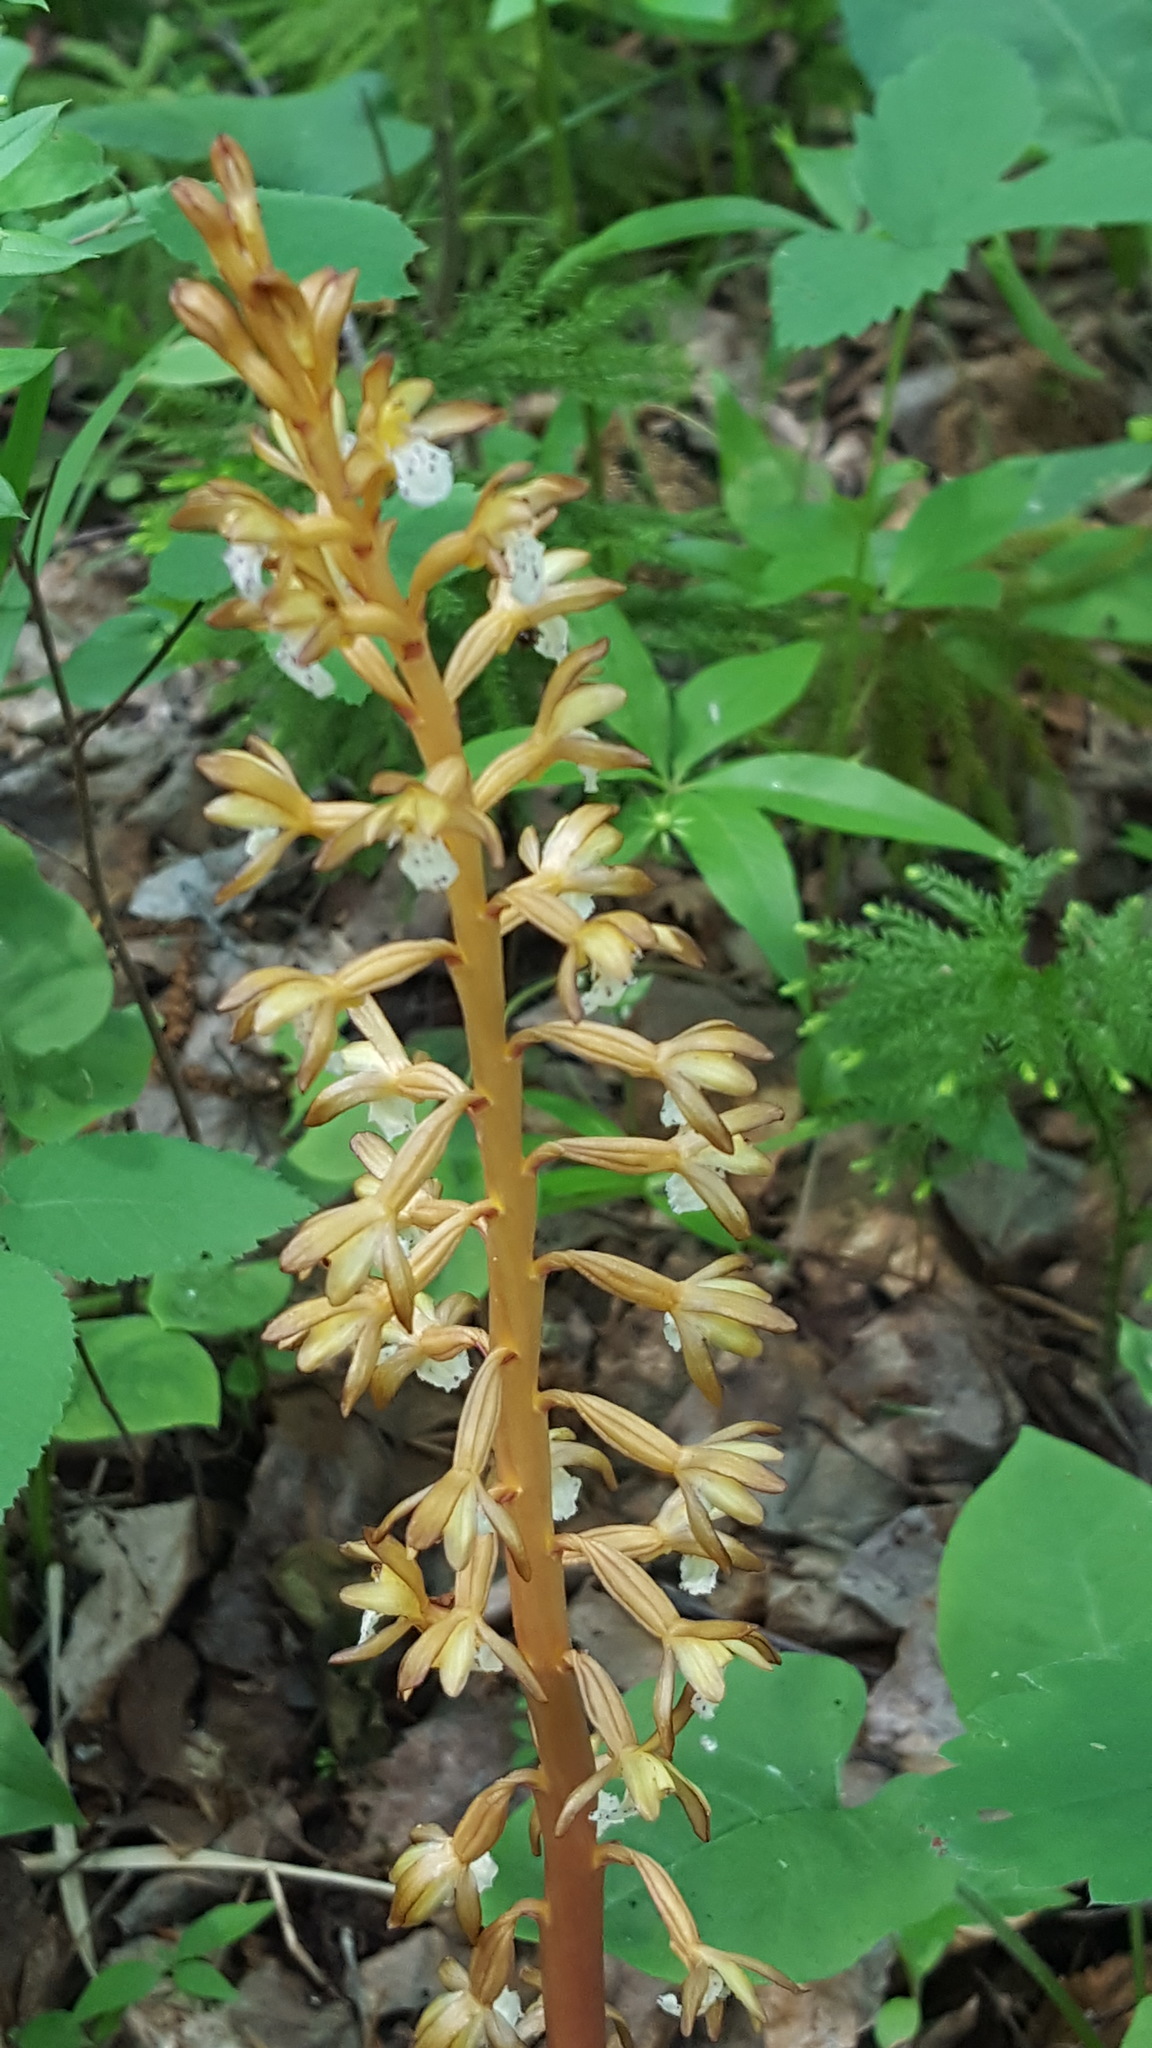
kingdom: Plantae
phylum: Tracheophyta
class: Liliopsida
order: Asparagales
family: Orchidaceae
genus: Corallorhiza
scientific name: Corallorhiza maculata
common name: Spotted coralroot
